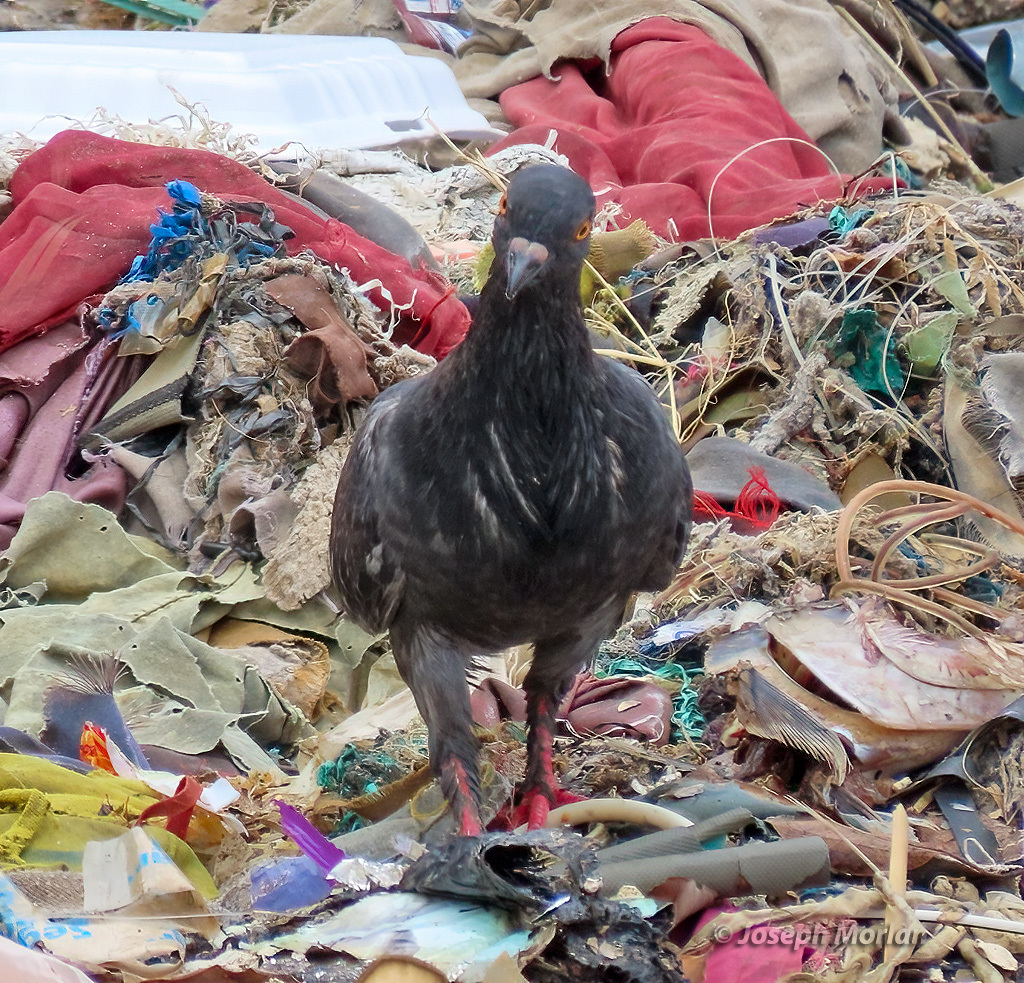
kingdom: Animalia
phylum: Chordata
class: Aves
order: Columbiformes
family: Columbidae
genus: Columba
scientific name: Columba livia
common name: Rock pigeon
